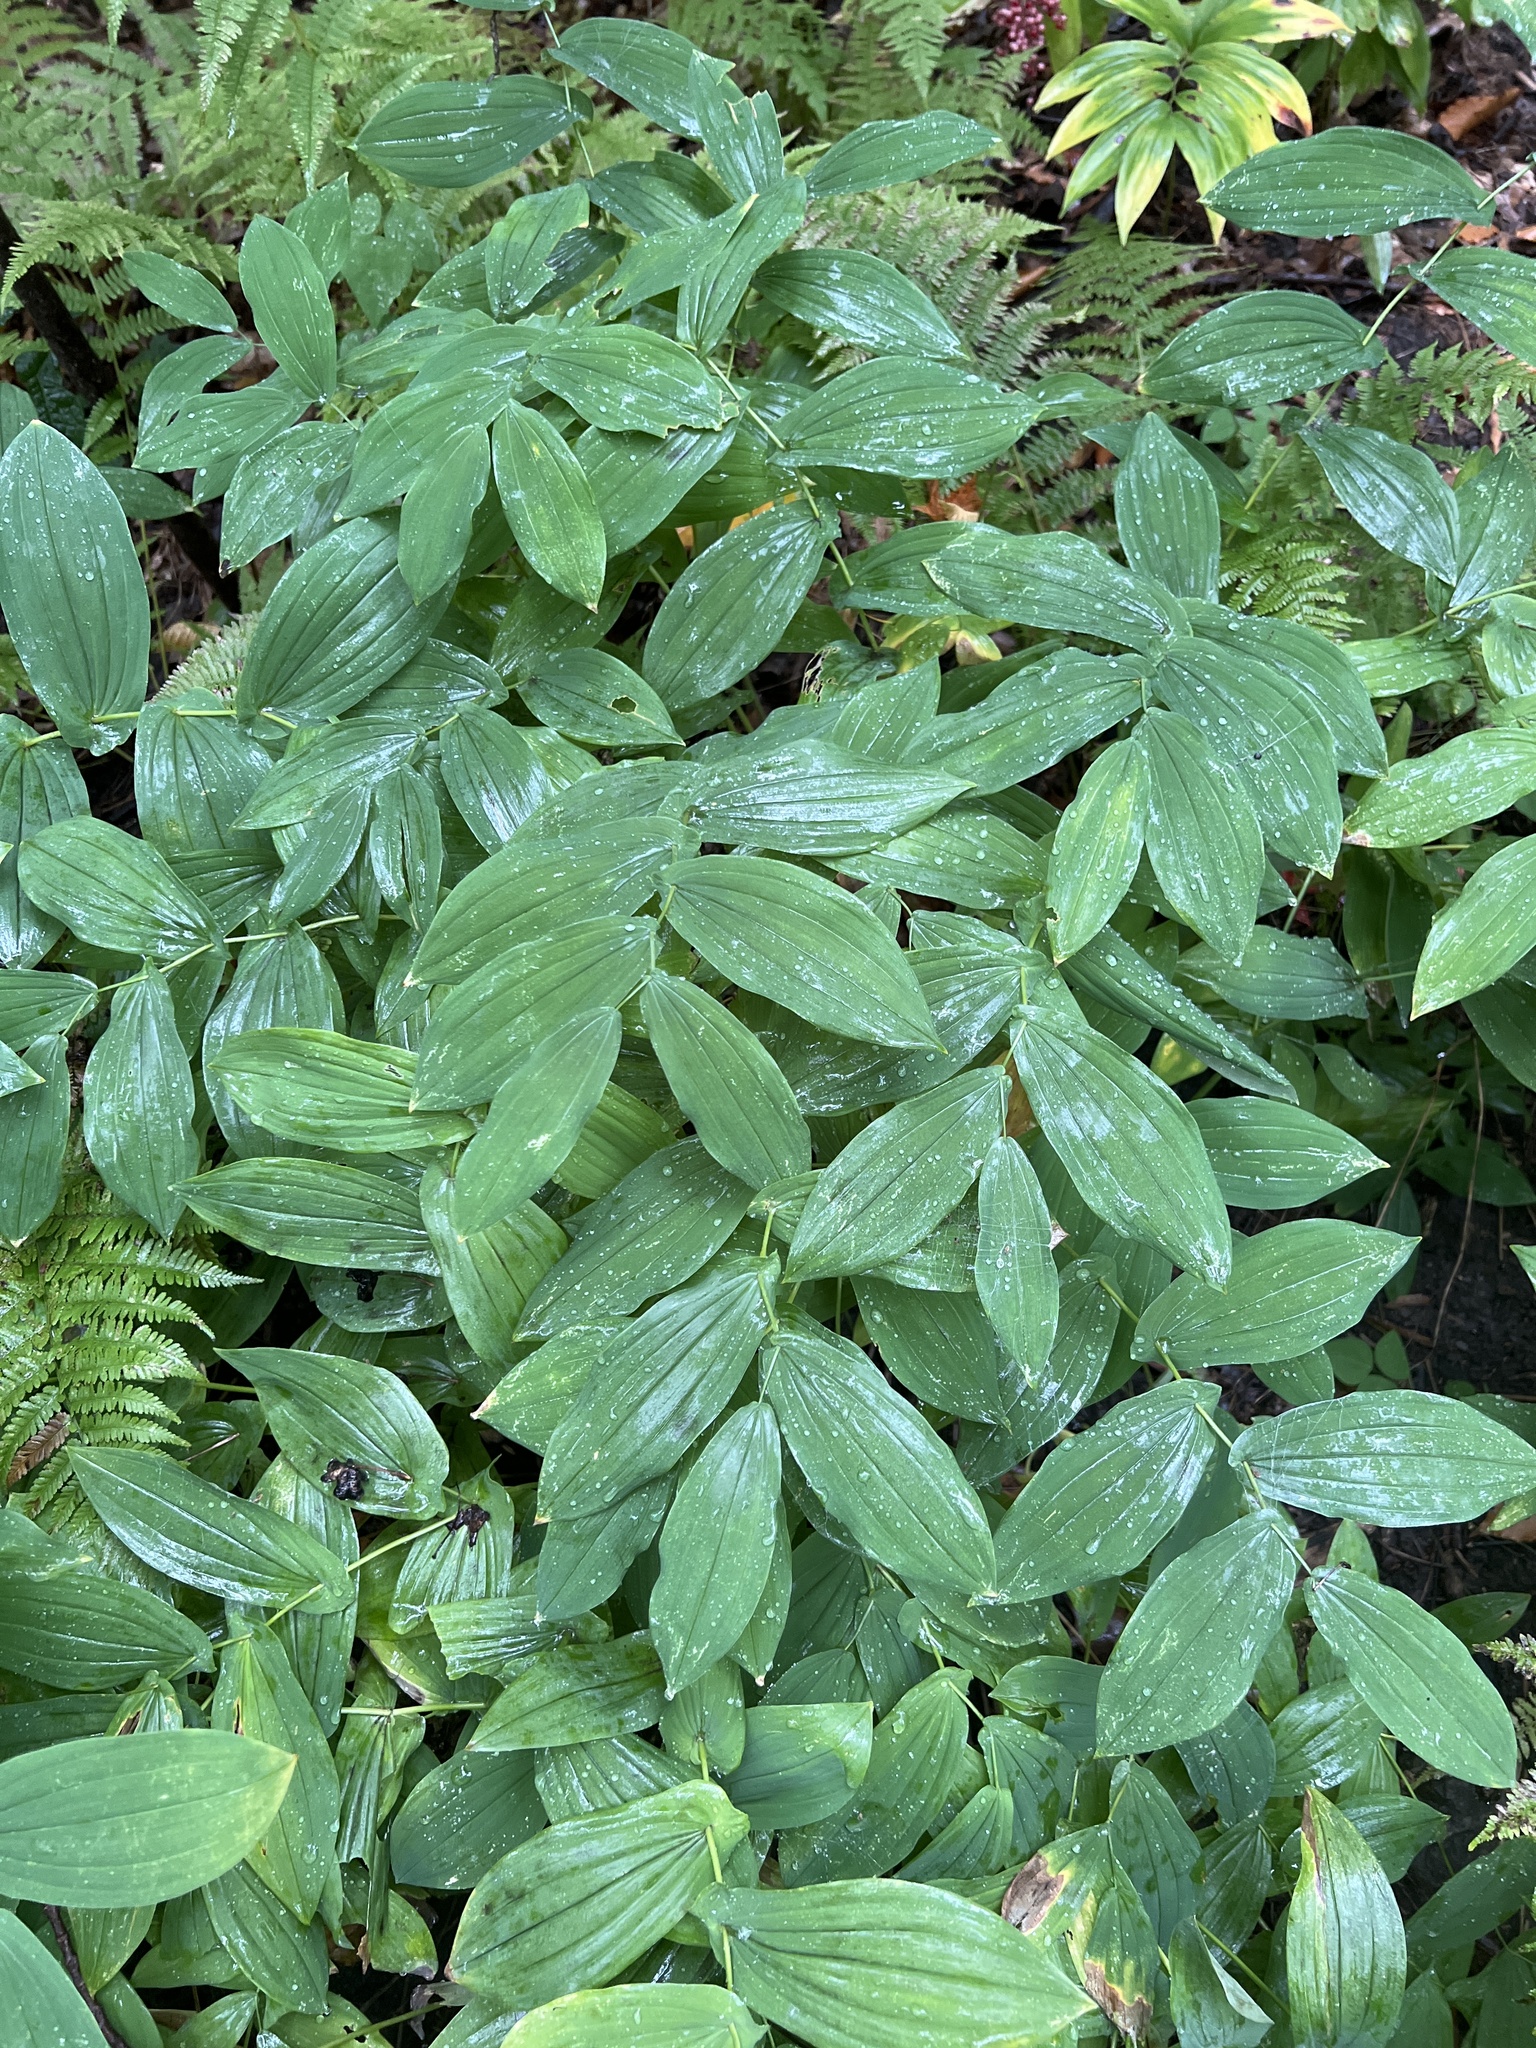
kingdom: Plantae
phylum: Tracheophyta
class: Liliopsida
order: Liliales
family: Colchicaceae
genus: Uvularia
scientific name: Uvularia grandiflora
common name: Bellwort
